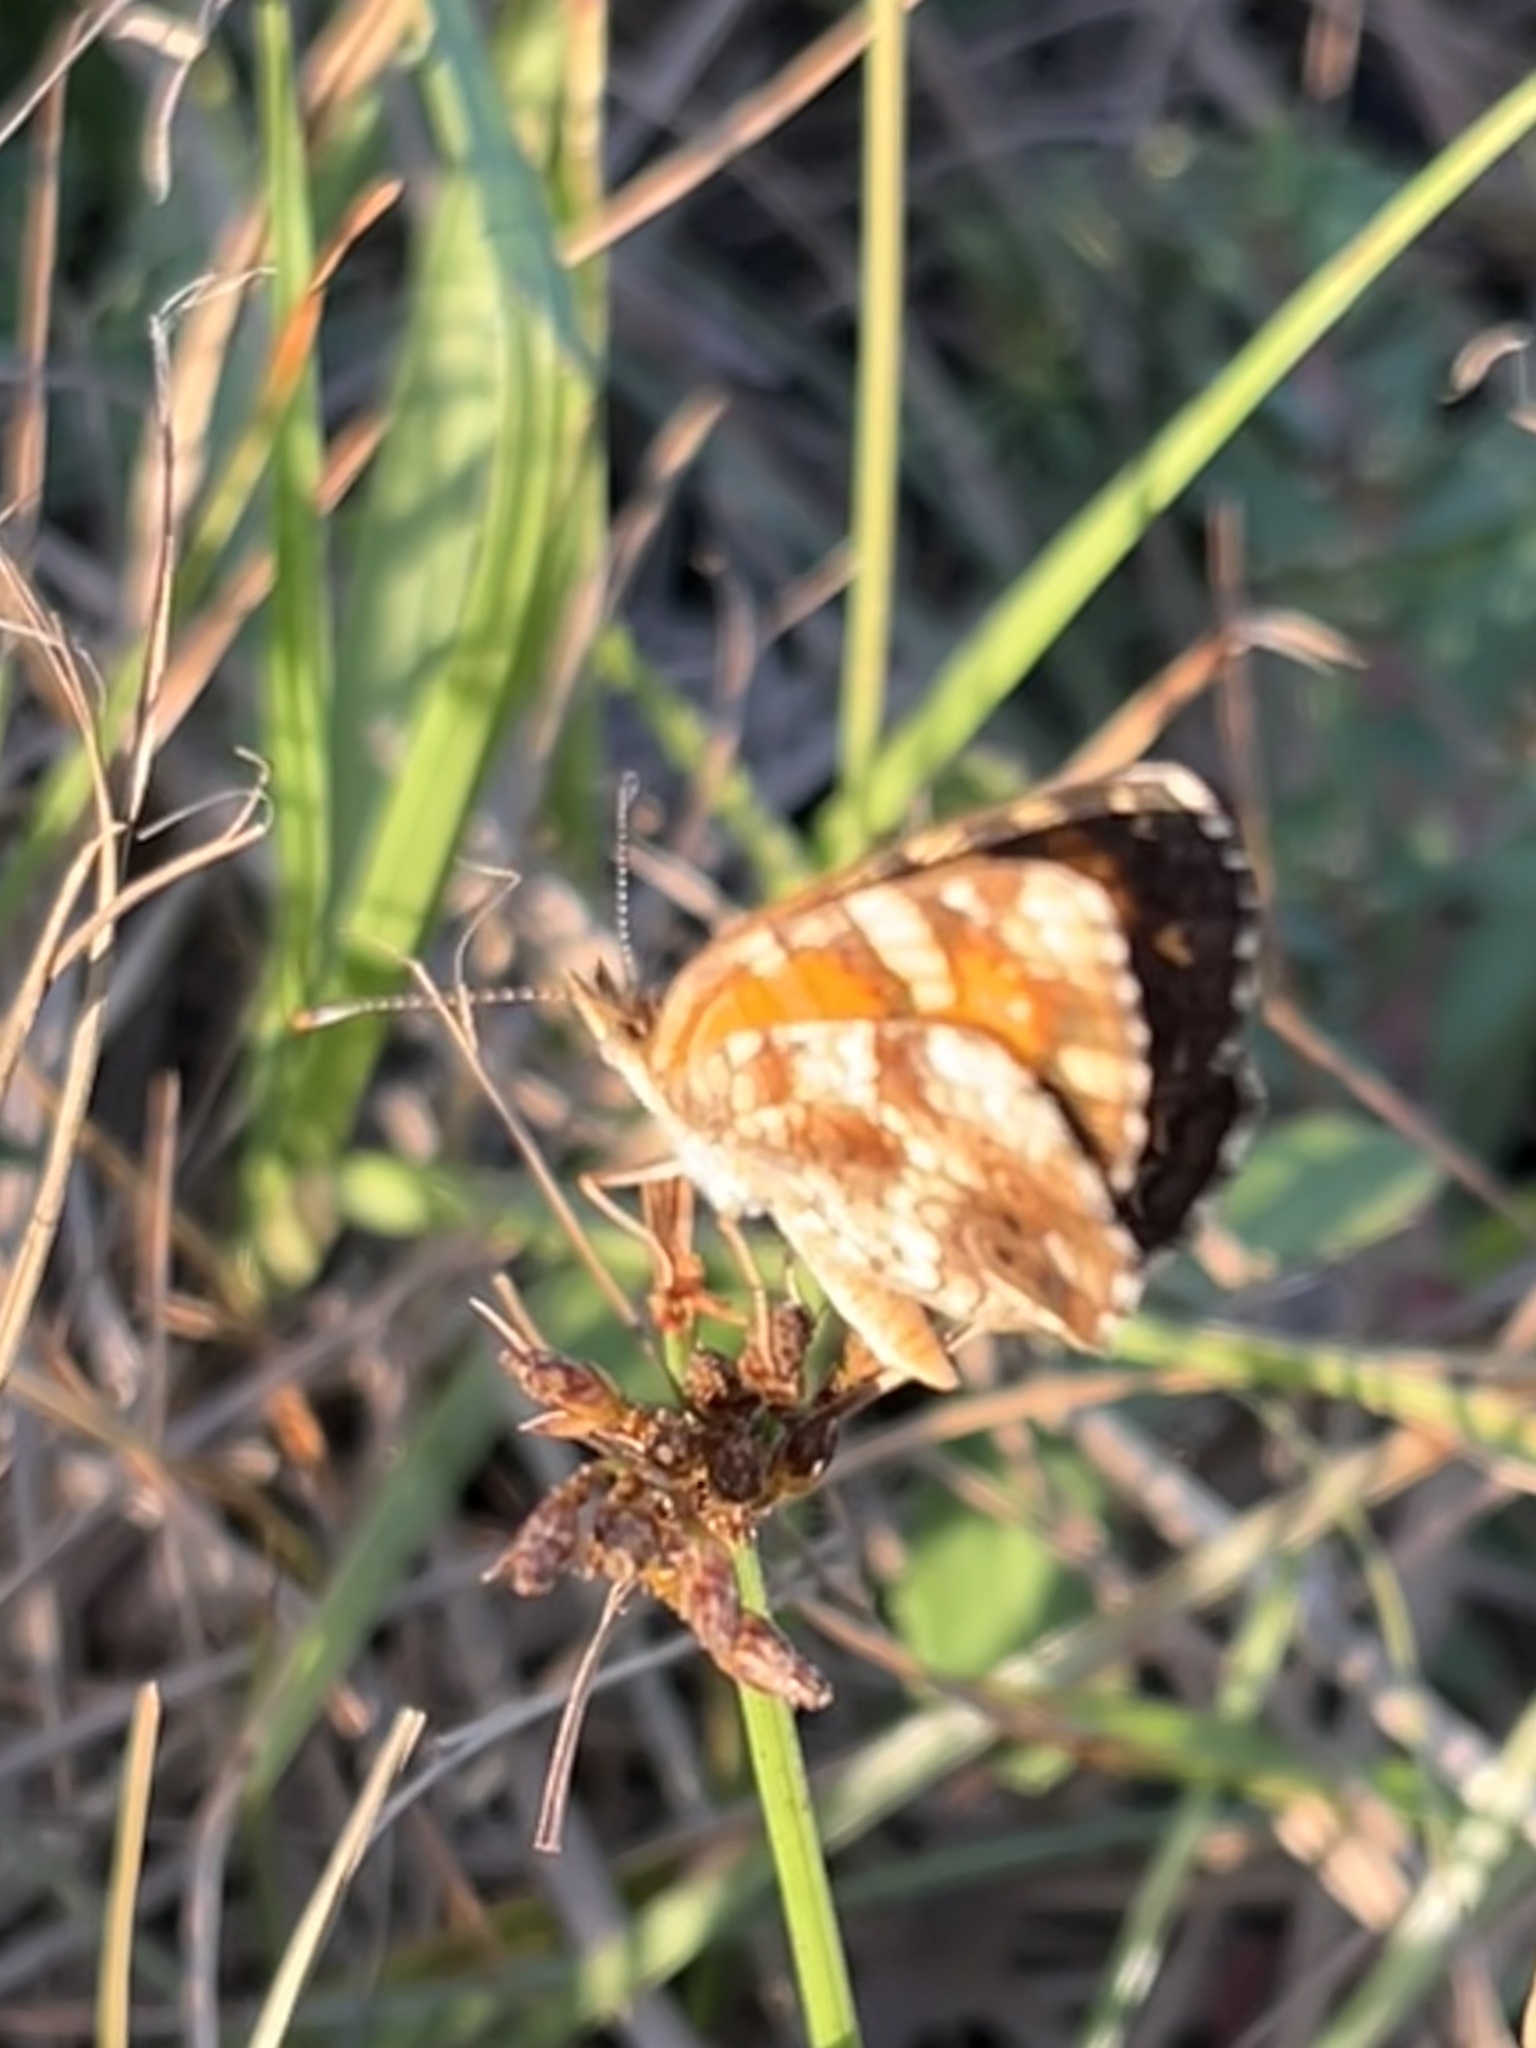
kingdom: Animalia
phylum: Arthropoda
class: Insecta
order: Lepidoptera
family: Nymphalidae
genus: Phyciodes
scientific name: Phyciodes phaon
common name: Phaon crescent
